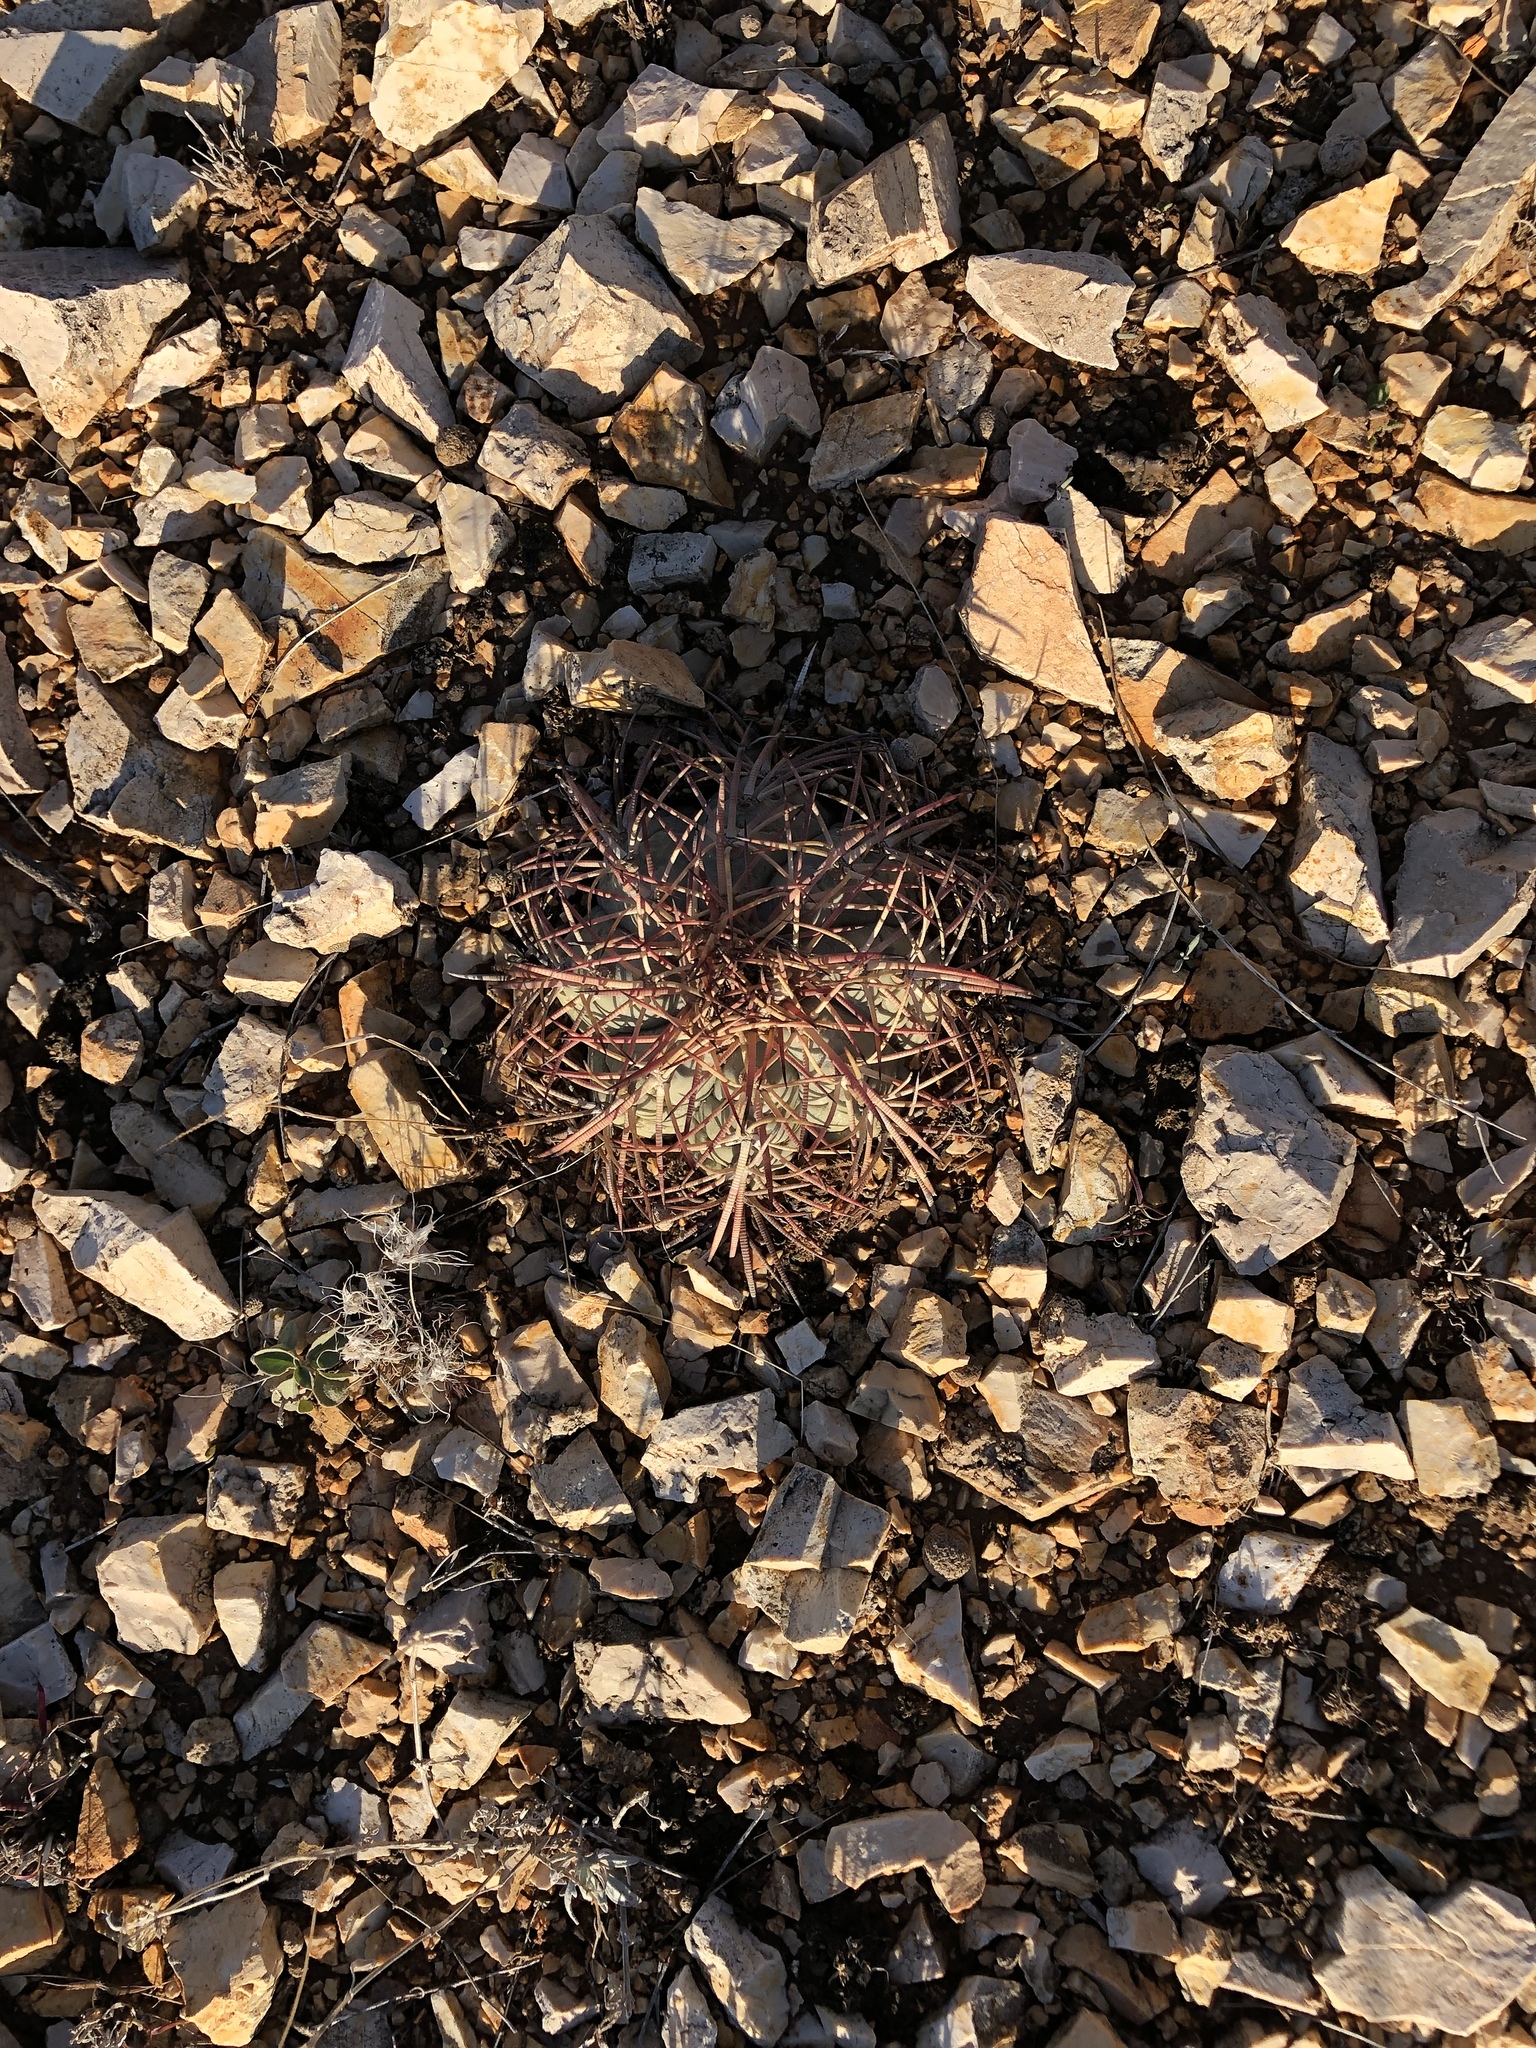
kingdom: Plantae
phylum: Tracheophyta
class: Magnoliopsida
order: Caryophyllales
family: Cactaceae
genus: Echinocactus
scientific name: Echinocactus horizonthalonius
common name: Devilshead
